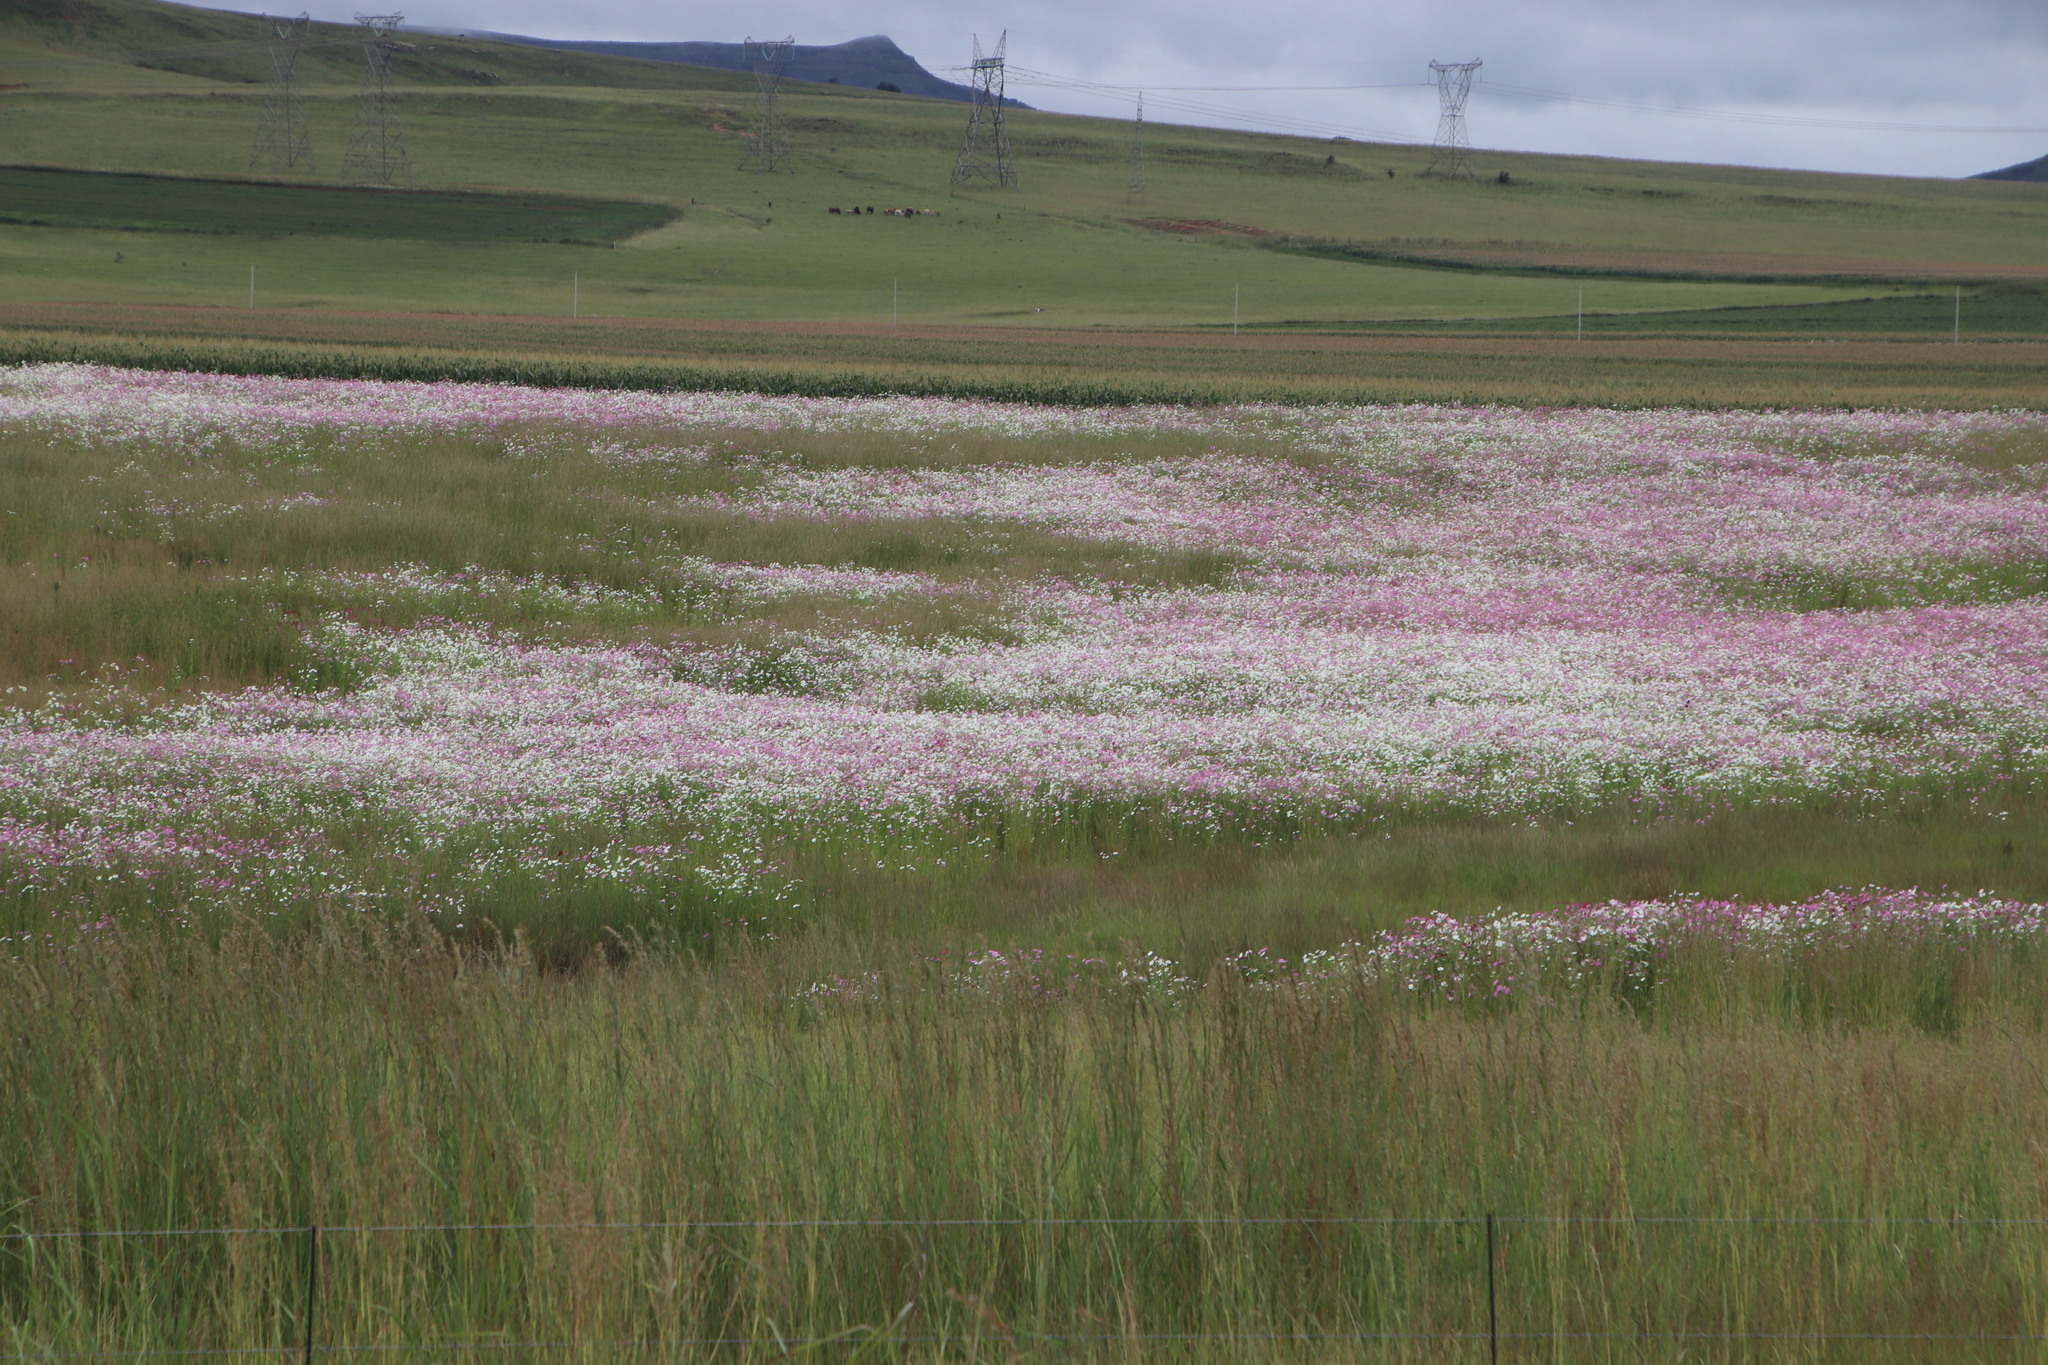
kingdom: Plantae
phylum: Tracheophyta
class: Magnoliopsida
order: Asterales
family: Asteraceae
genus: Cosmos
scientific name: Cosmos bipinnatus
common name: Garden cosmos
